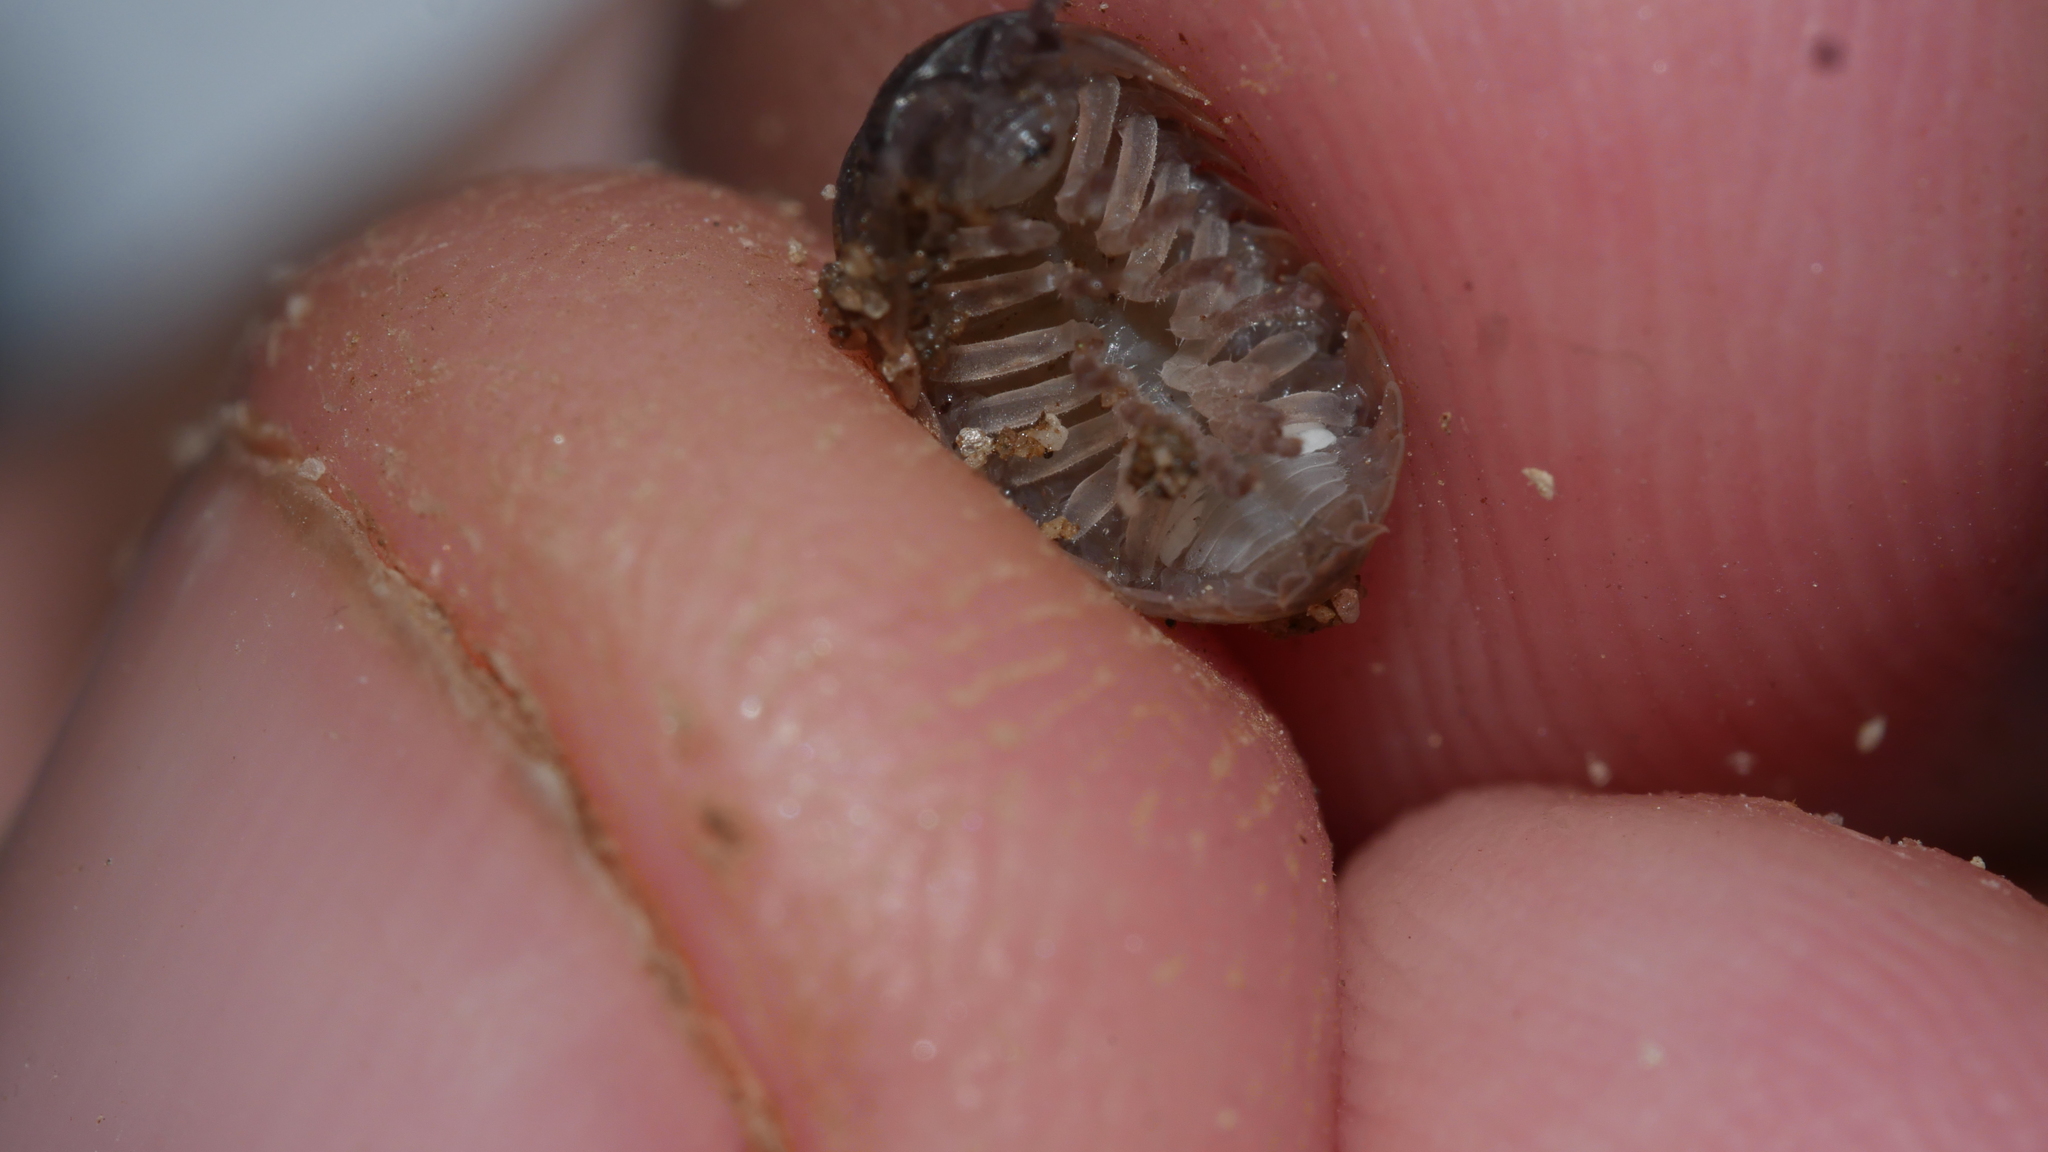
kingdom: Animalia
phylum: Arthropoda
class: Malacostraca
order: Isopoda
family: Armadillidiidae
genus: Armadillidium
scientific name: Armadillidium vulgare
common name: Common pill woodlouse
